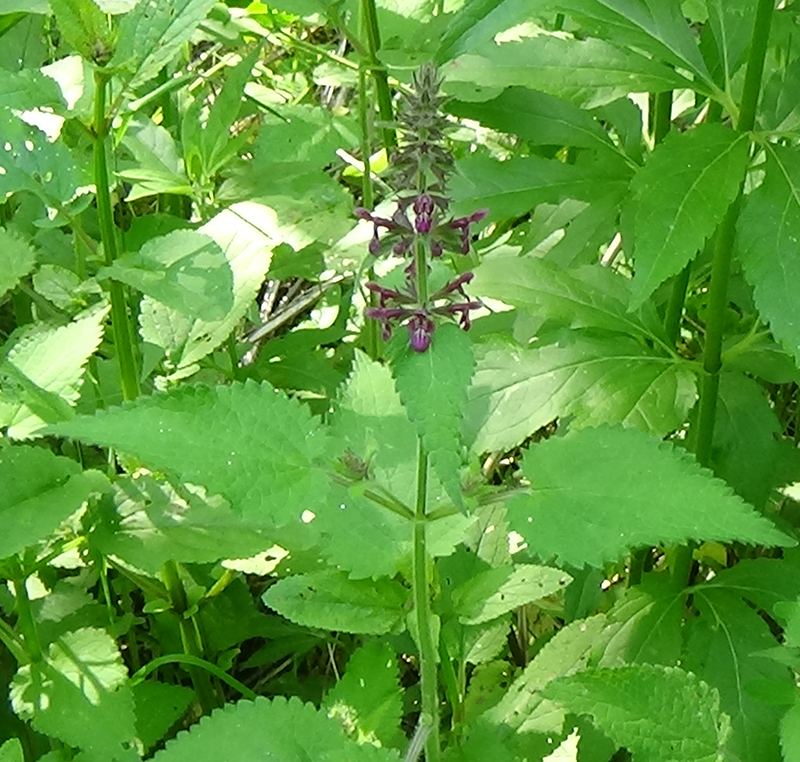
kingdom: Plantae
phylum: Tracheophyta
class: Magnoliopsida
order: Lamiales
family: Lamiaceae
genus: Stachys
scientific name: Stachys sylvatica
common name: Hedge woundwort
